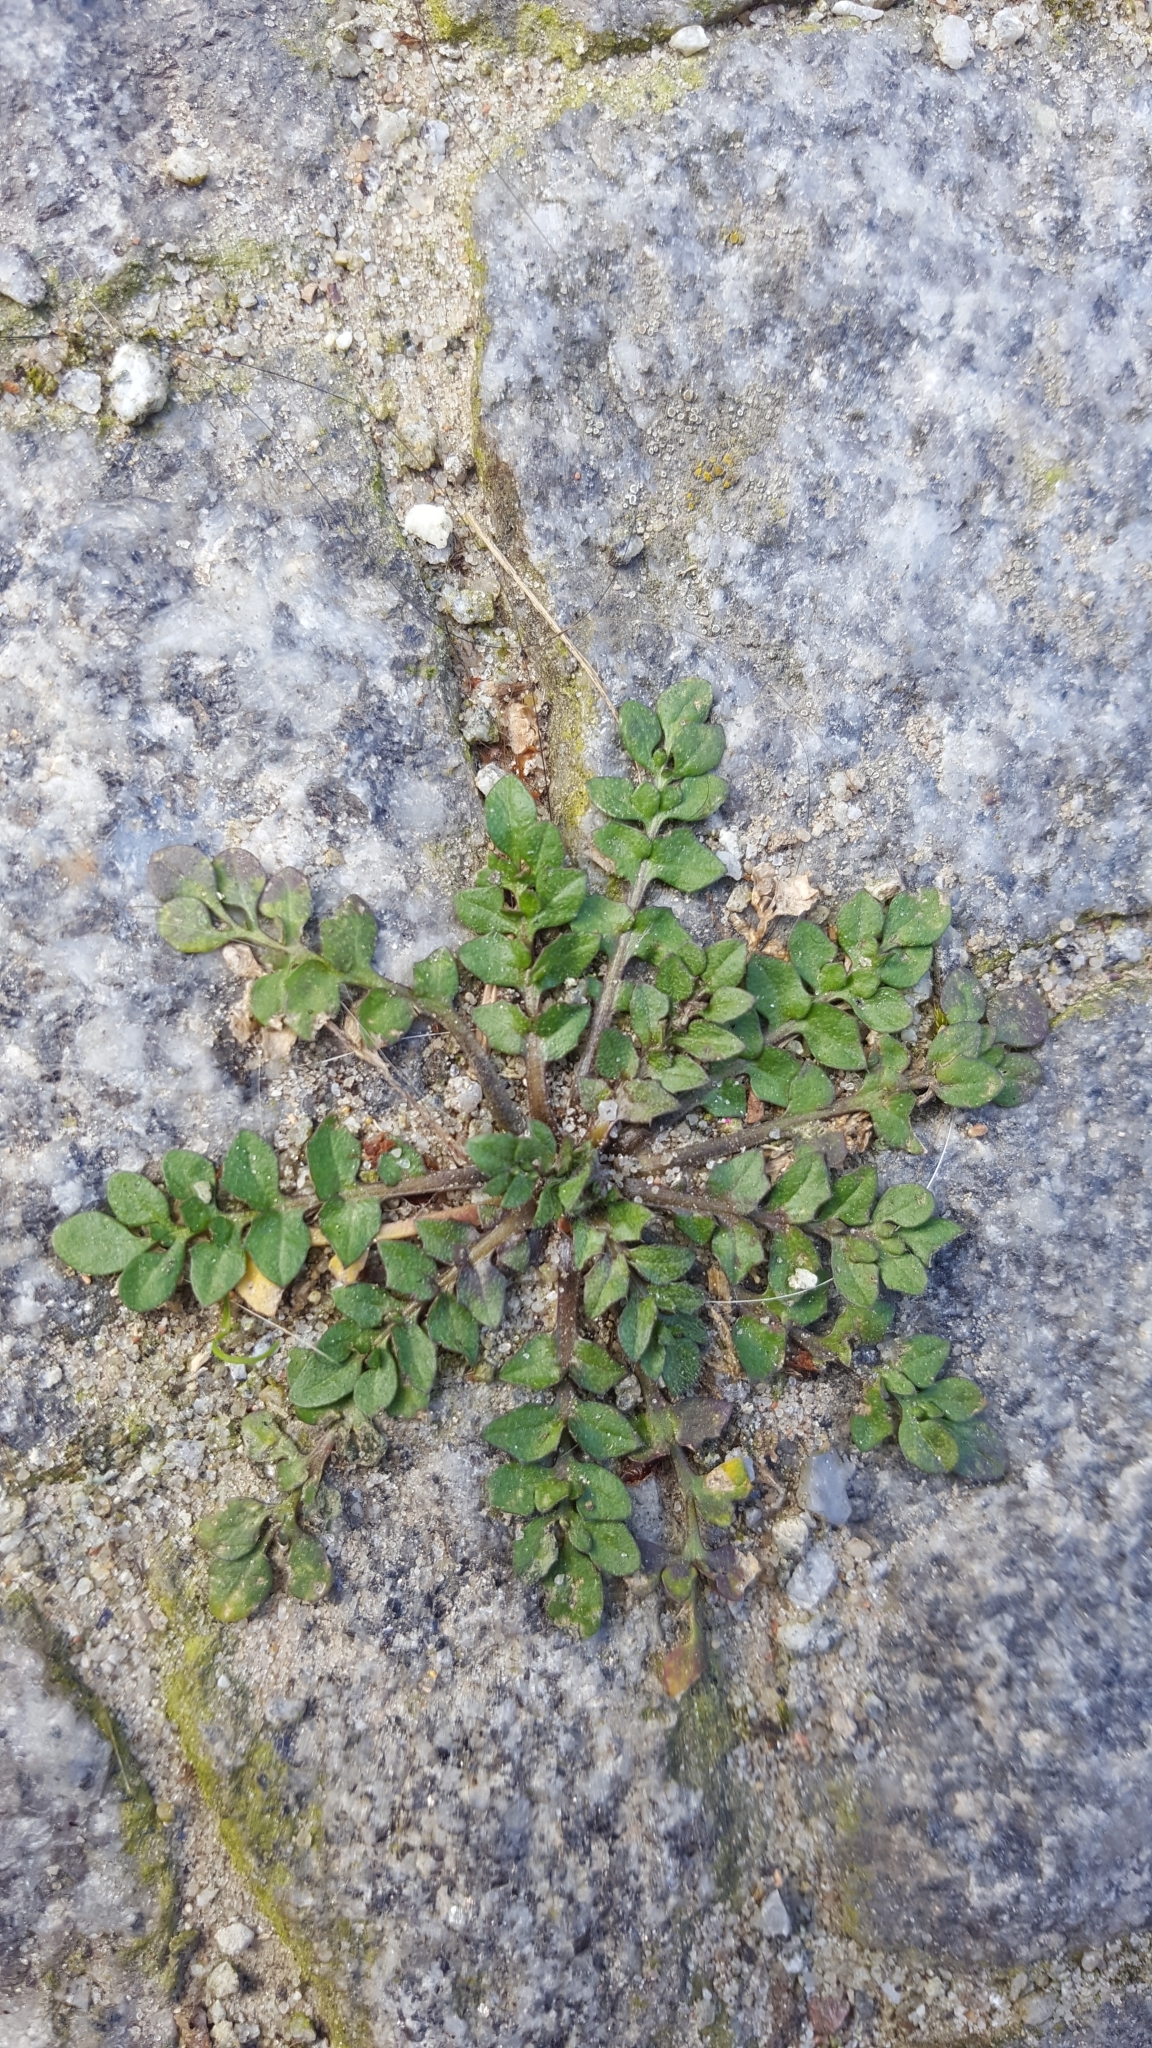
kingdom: Plantae
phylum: Tracheophyta
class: Magnoliopsida
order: Brassicales
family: Brassicaceae
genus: Capsella
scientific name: Capsella bursa-pastoris
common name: Shepherd's purse
